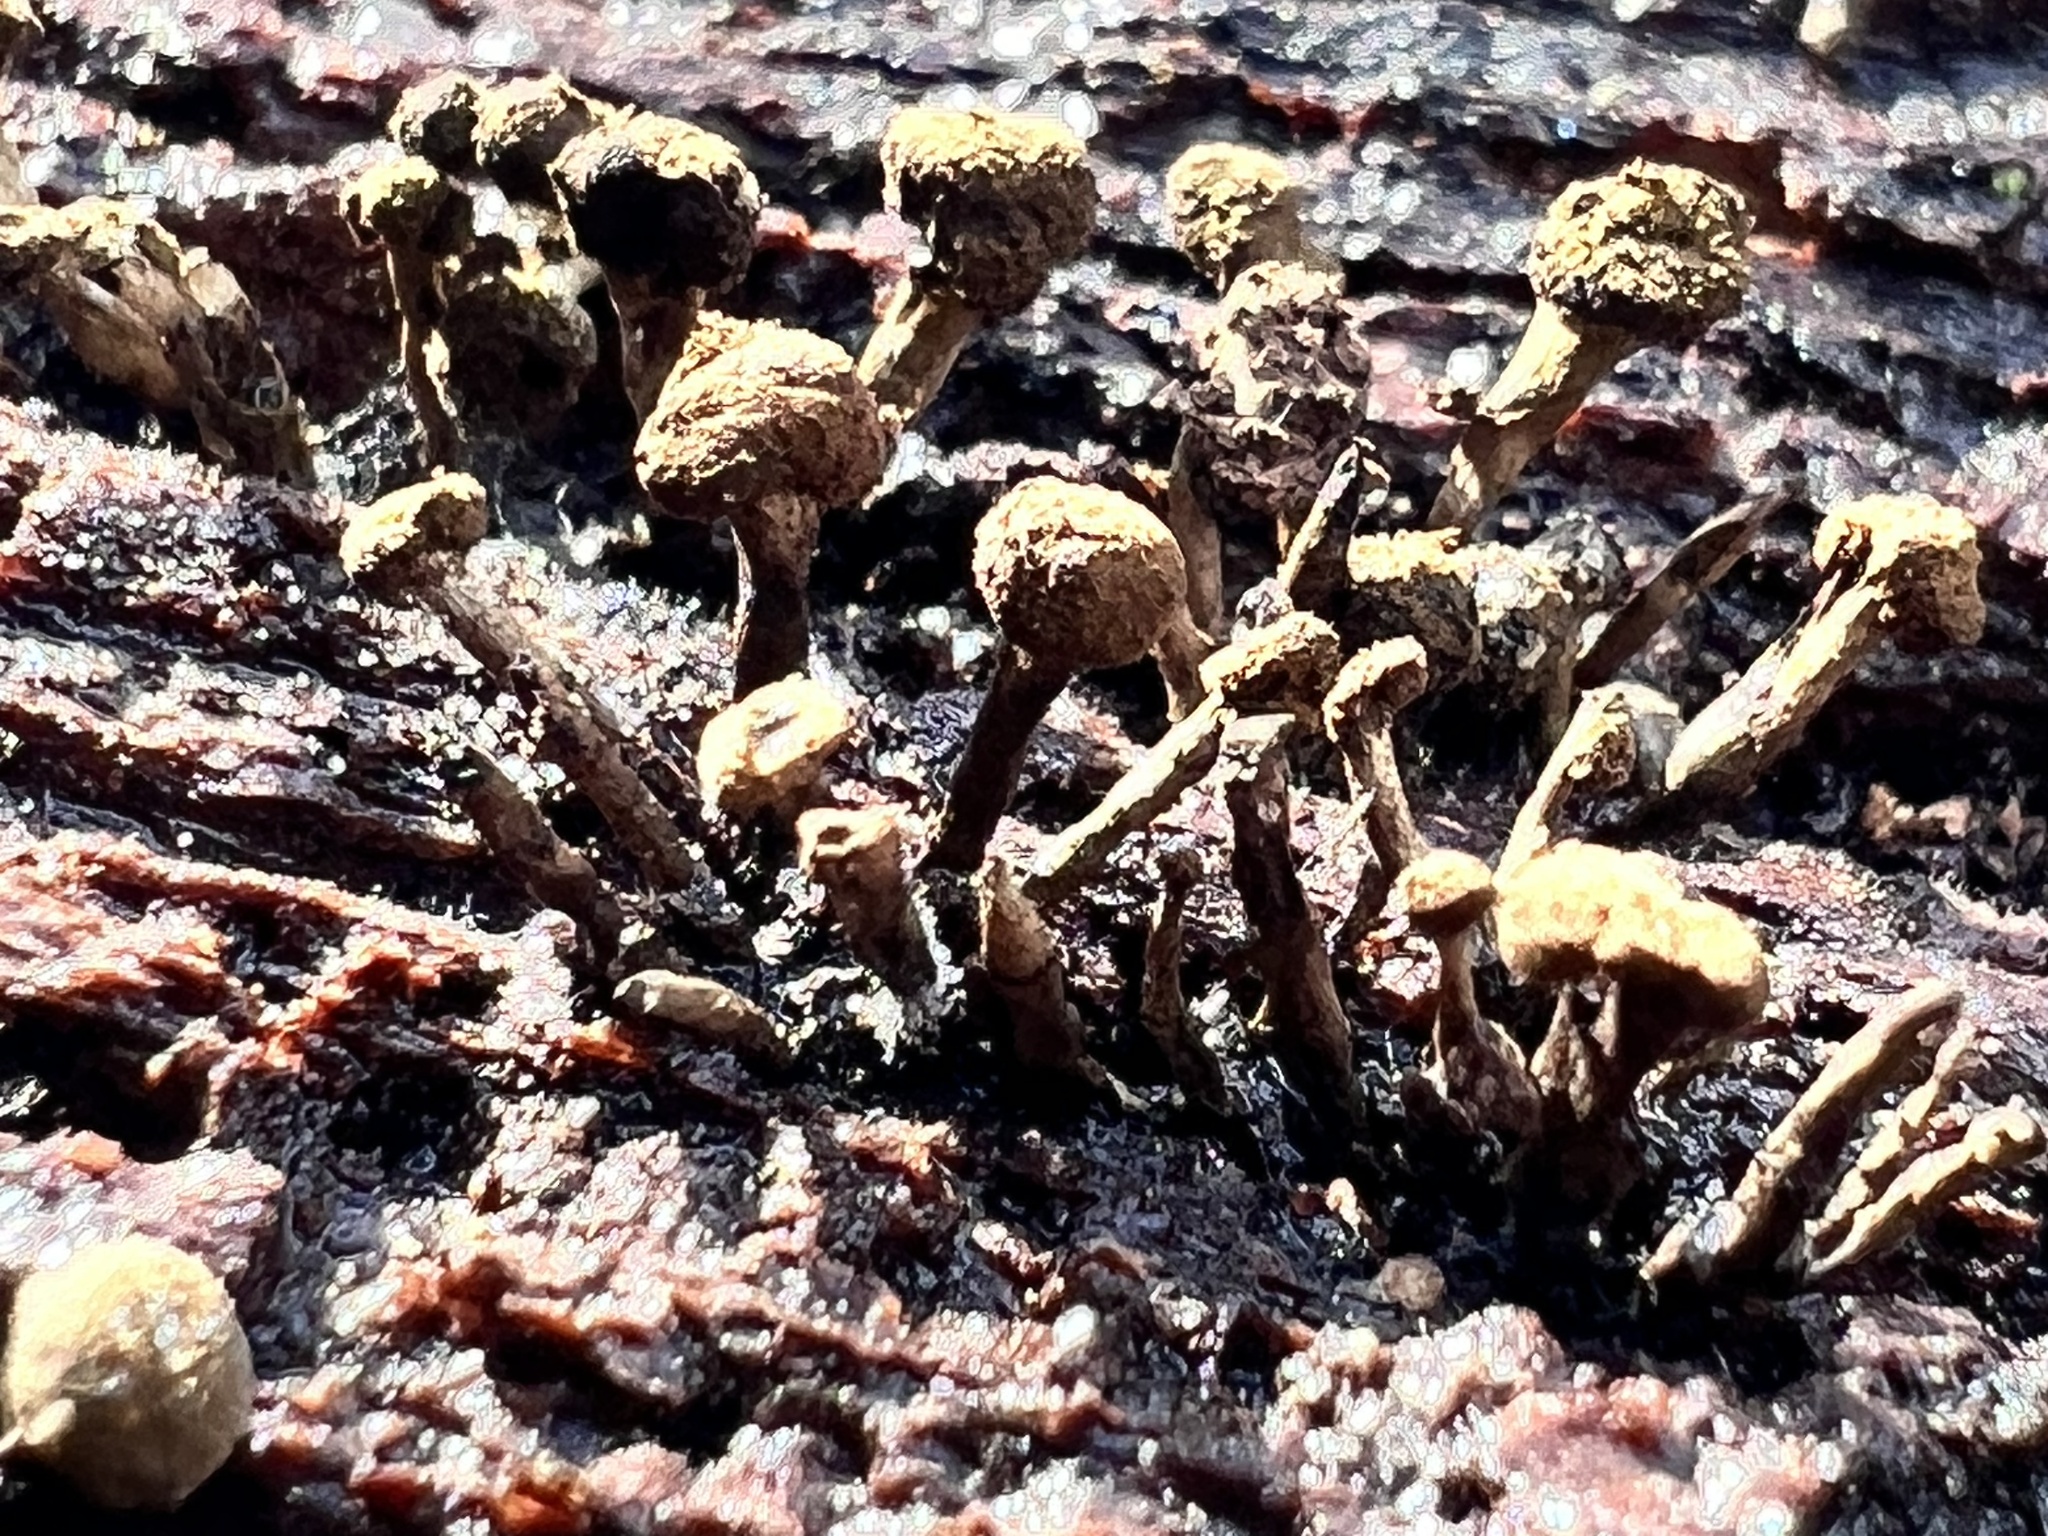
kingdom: Fungi
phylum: Basidiomycota
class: Atractiellomycetes
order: Atractiellales
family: Phleogenaceae
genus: Phleogena
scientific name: Phleogena faginea
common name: Fenugreek stalkball
